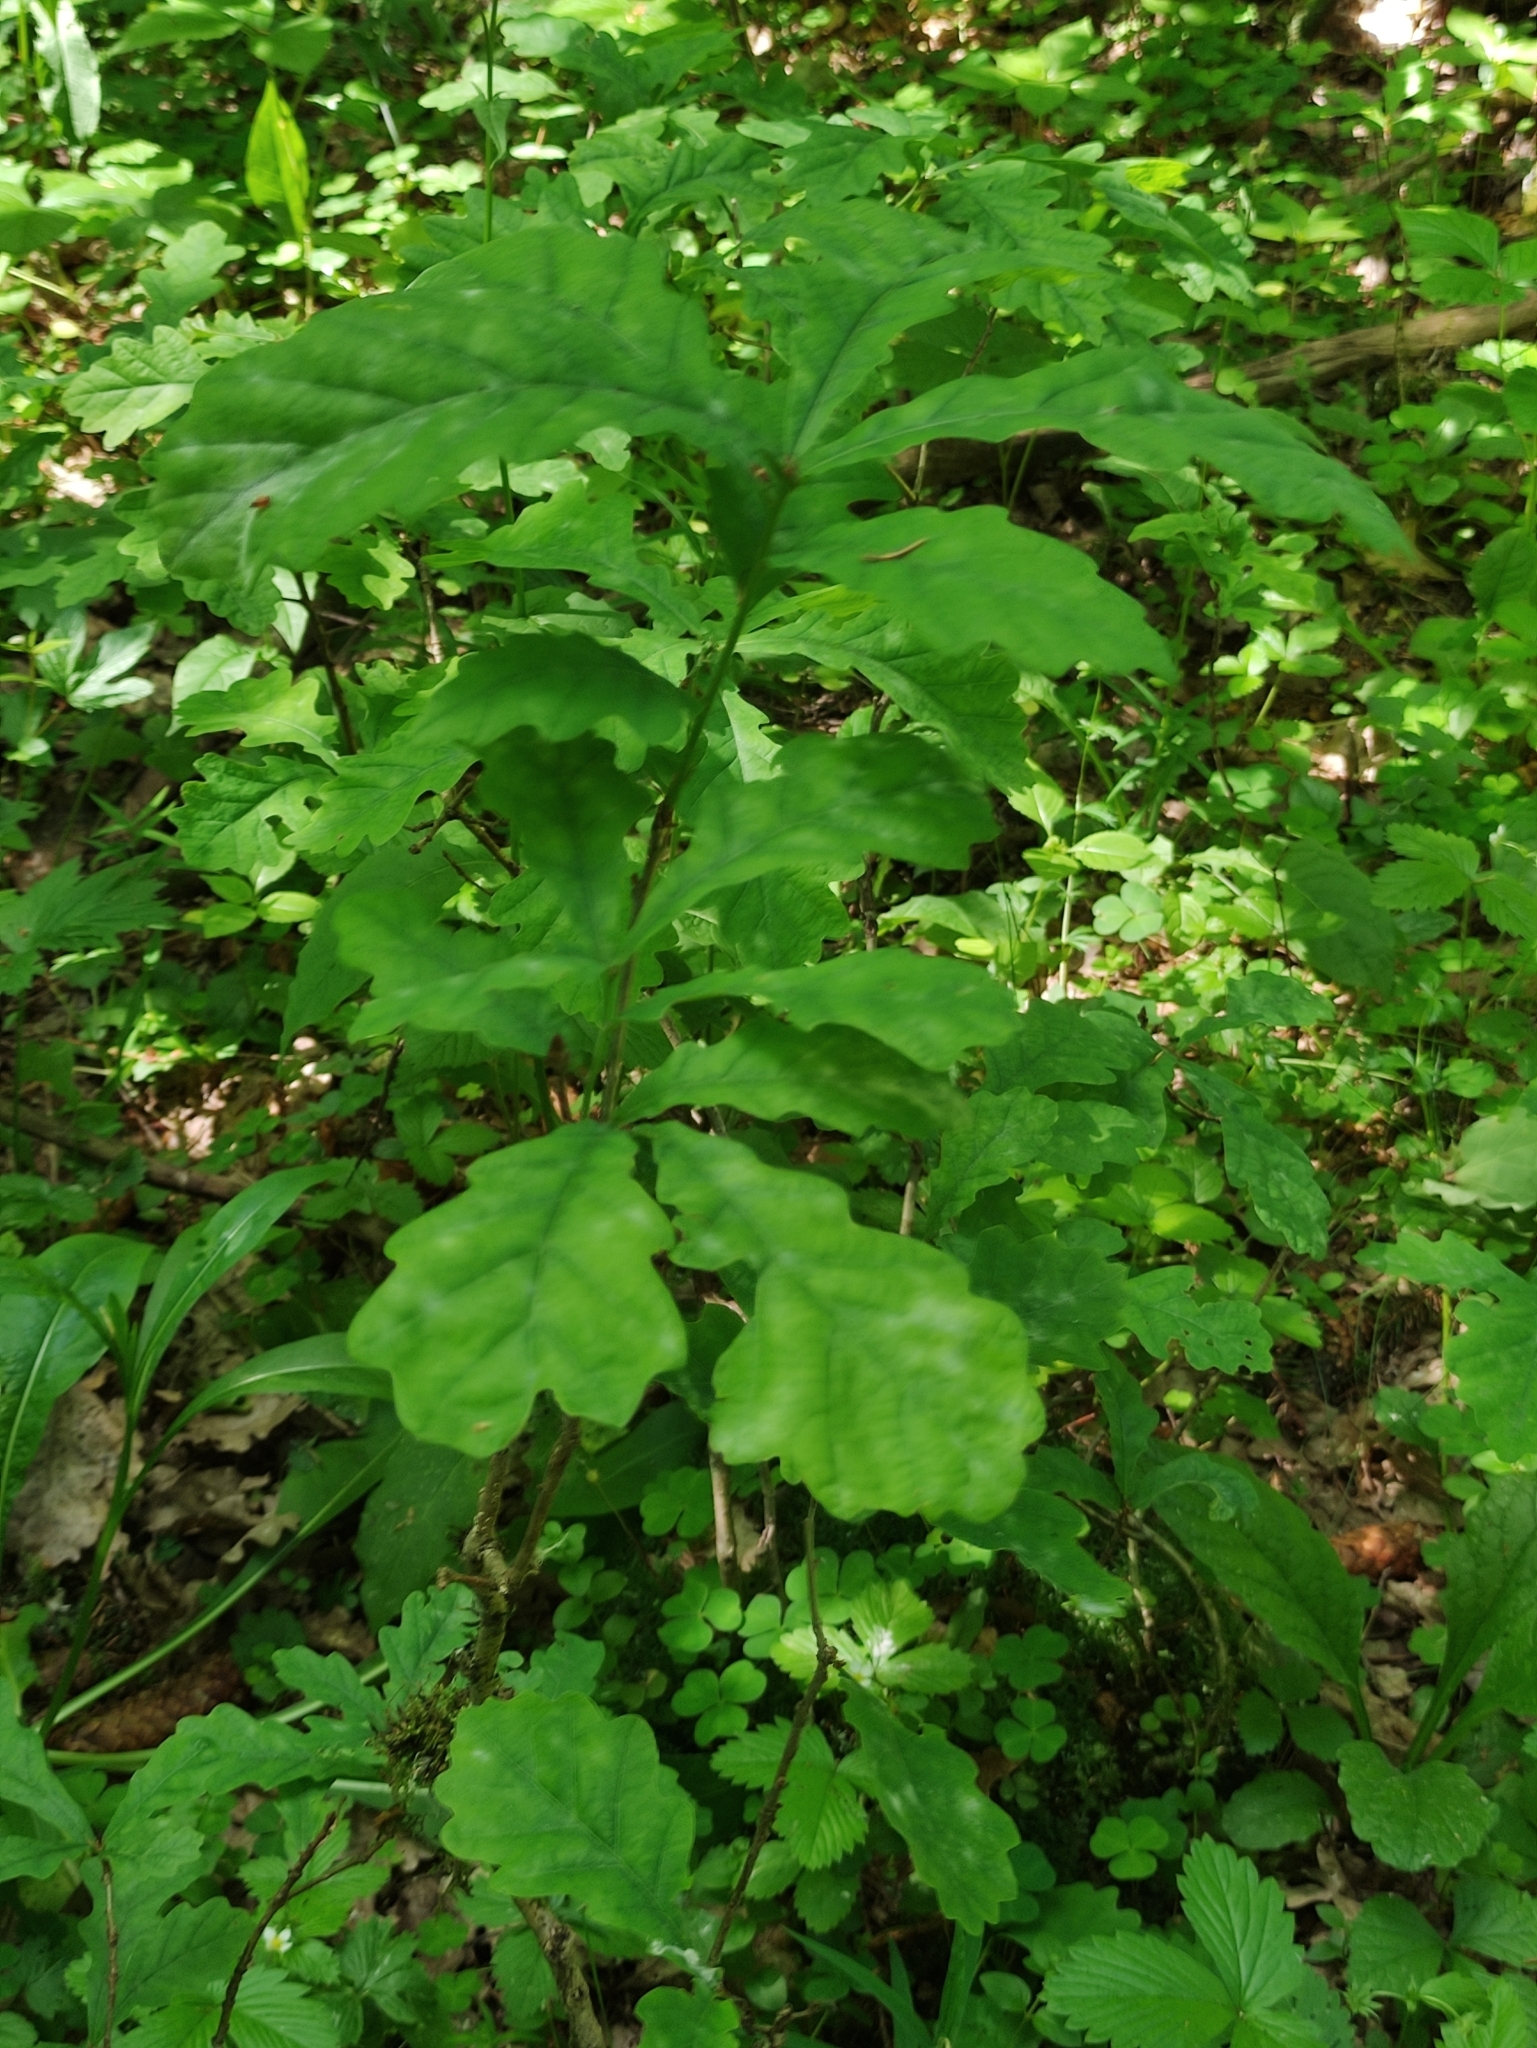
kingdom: Plantae
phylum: Tracheophyta
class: Magnoliopsida
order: Fagales
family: Fagaceae
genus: Quercus
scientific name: Quercus robur
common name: Pedunculate oak
